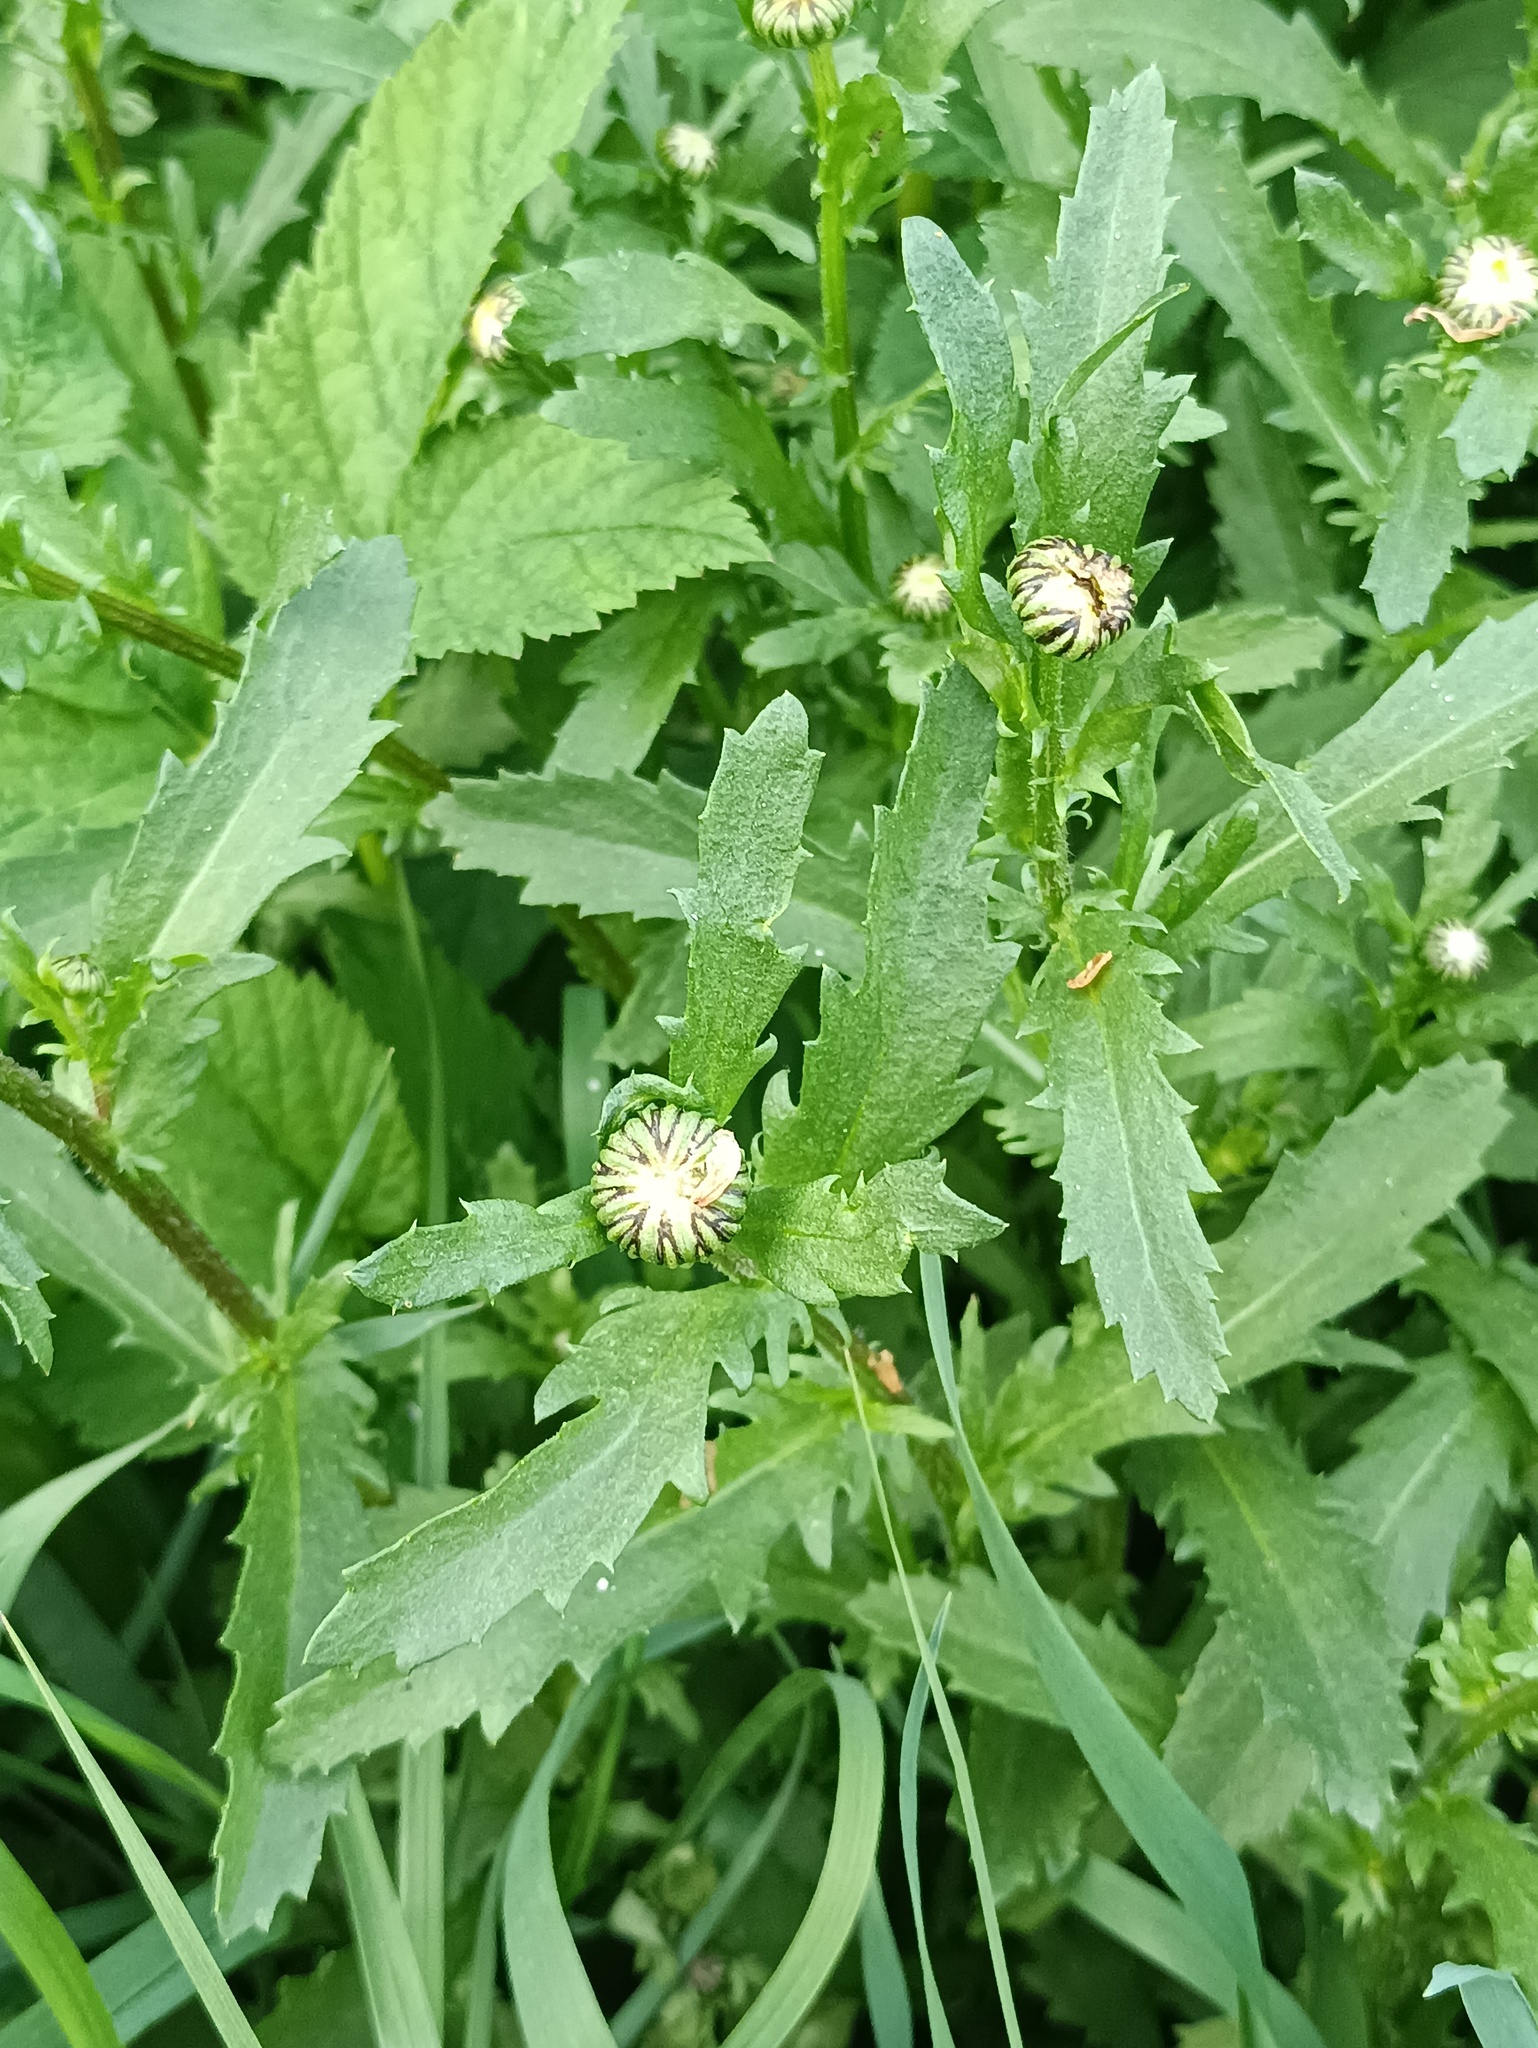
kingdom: Plantae
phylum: Tracheophyta
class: Magnoliopsida
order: Asterales
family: Asteraceae
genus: Leucanthemum
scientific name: Leucanthemum vulgare
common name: Oxeye daisy
